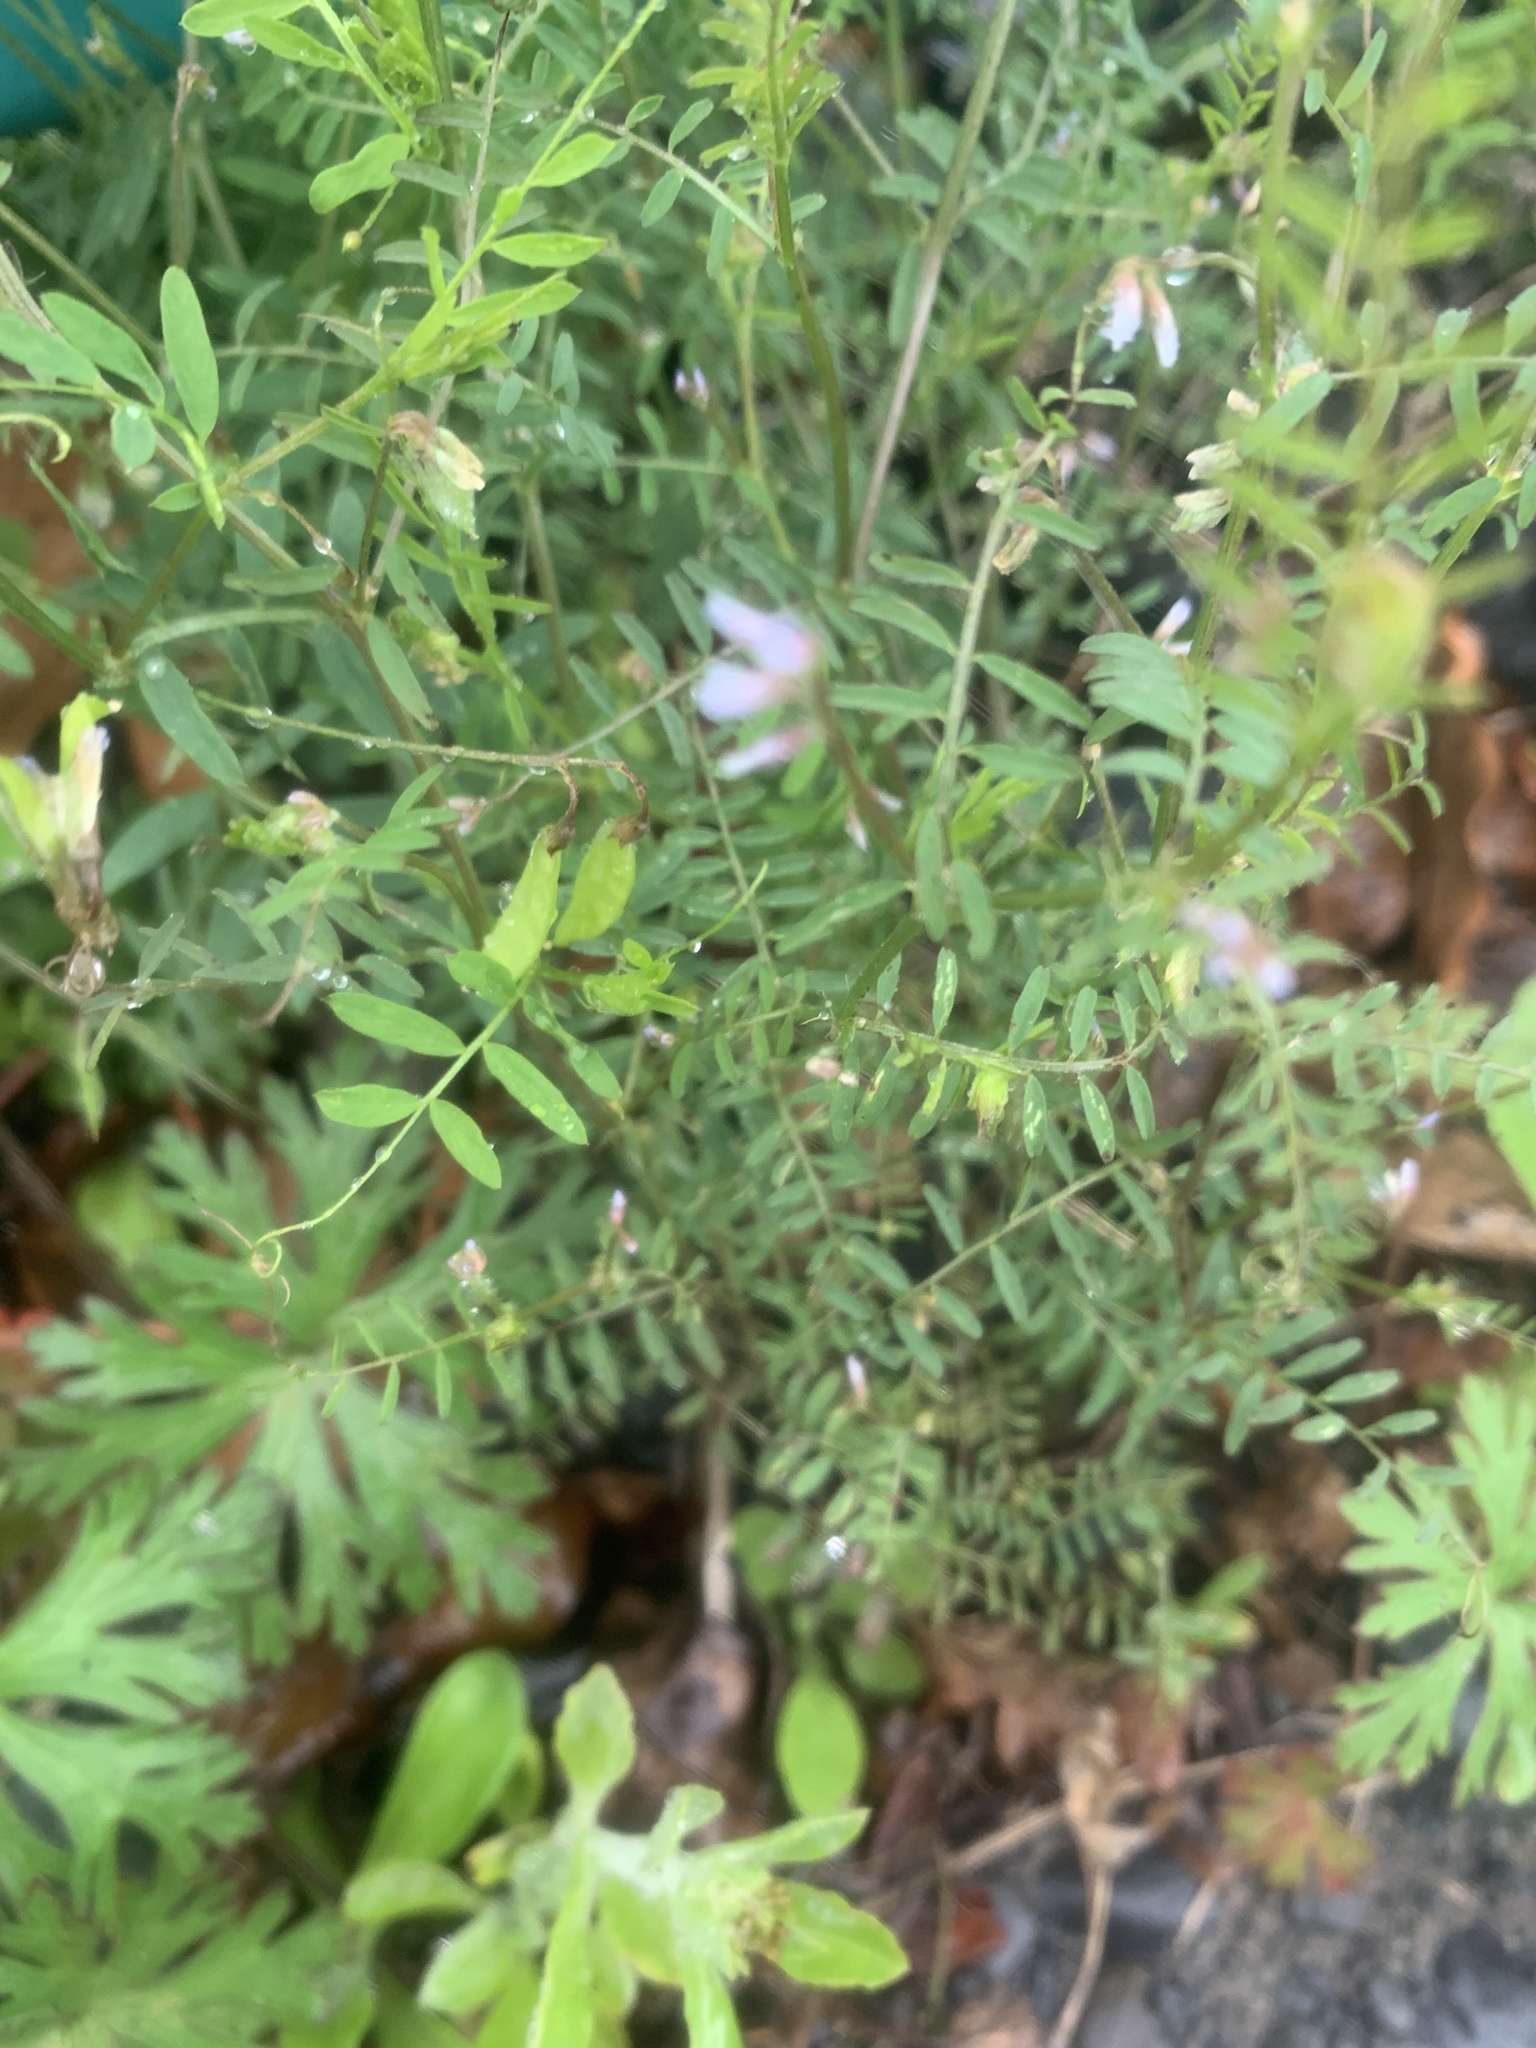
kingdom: Plantae
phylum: Tracheophyta
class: Magnoliopsida
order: Fabales
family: Fabaceae
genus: Vicia
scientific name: Vicia hirsuta
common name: Tiny vetch
